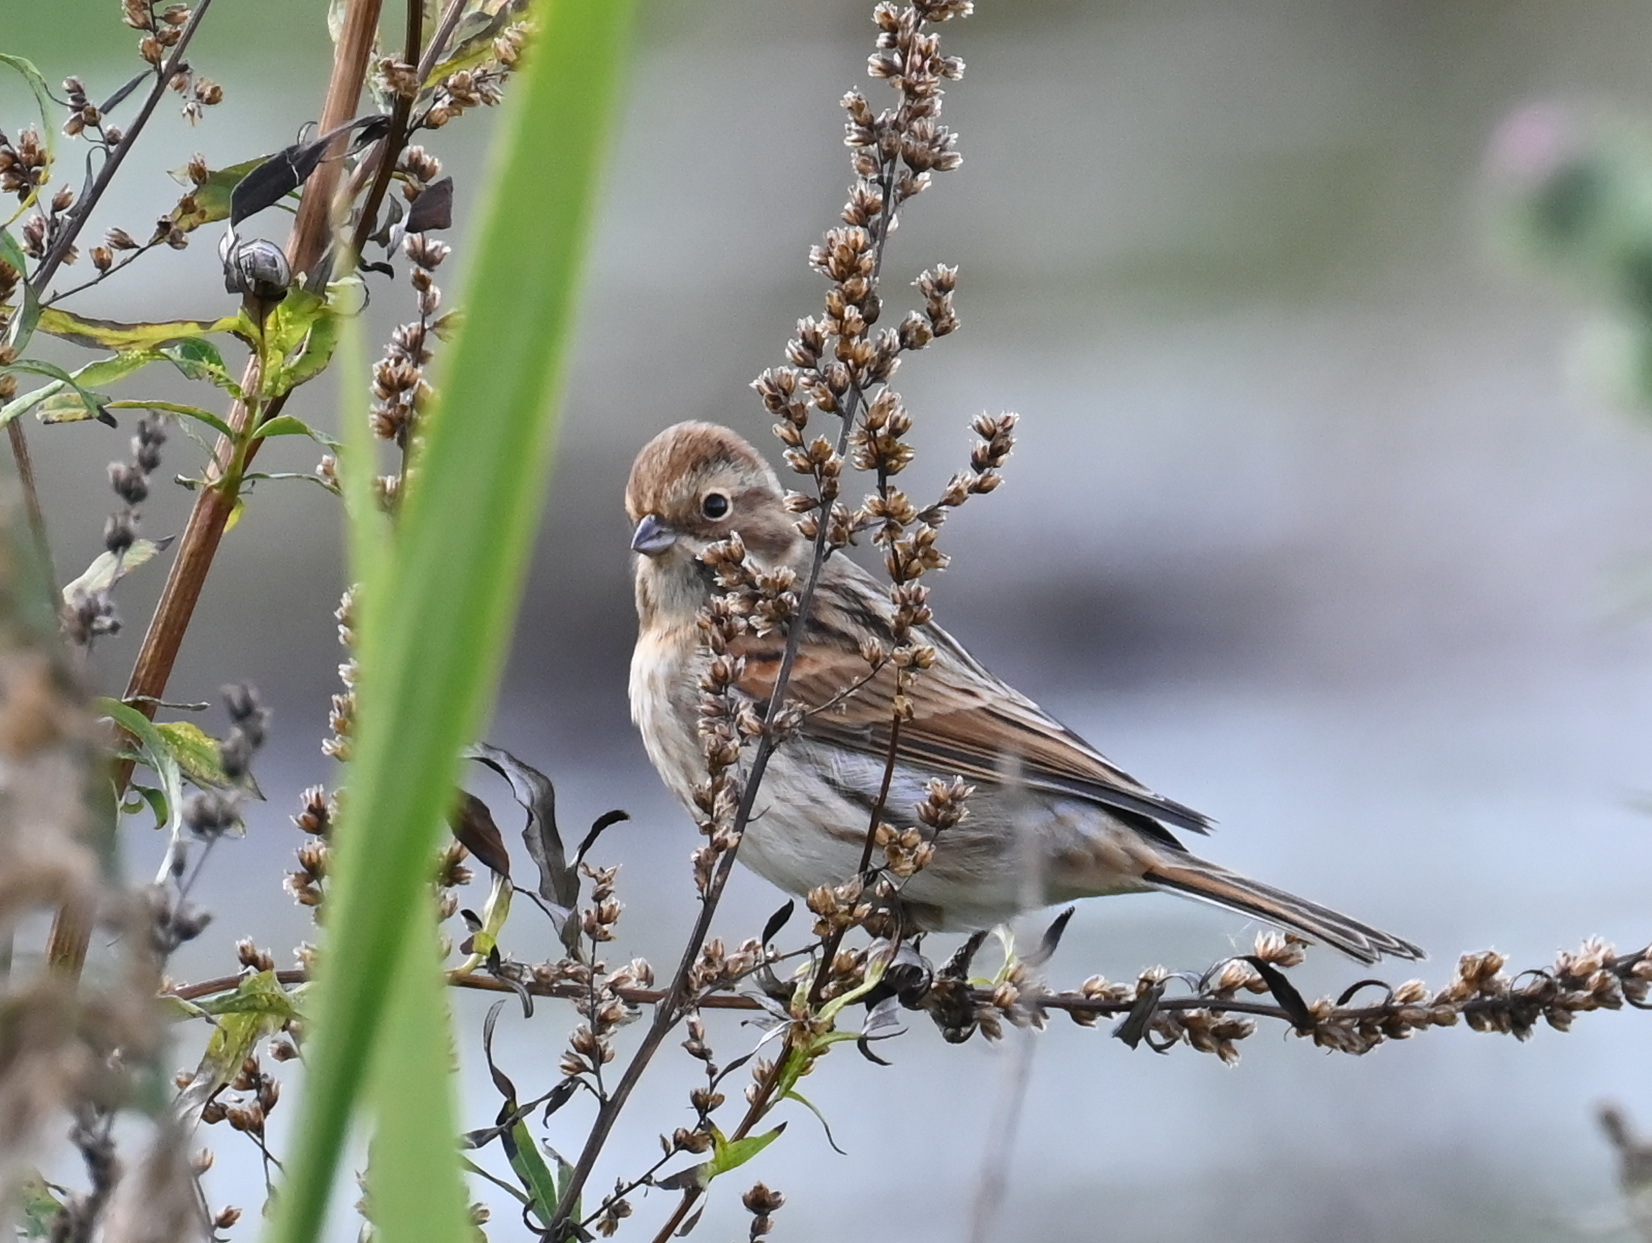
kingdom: Animalia
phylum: Chordata
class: Aves
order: Passeriformes
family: Emberizidae
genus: Emberiza
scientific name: Emberiza schoeniclus
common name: Reed bunting
